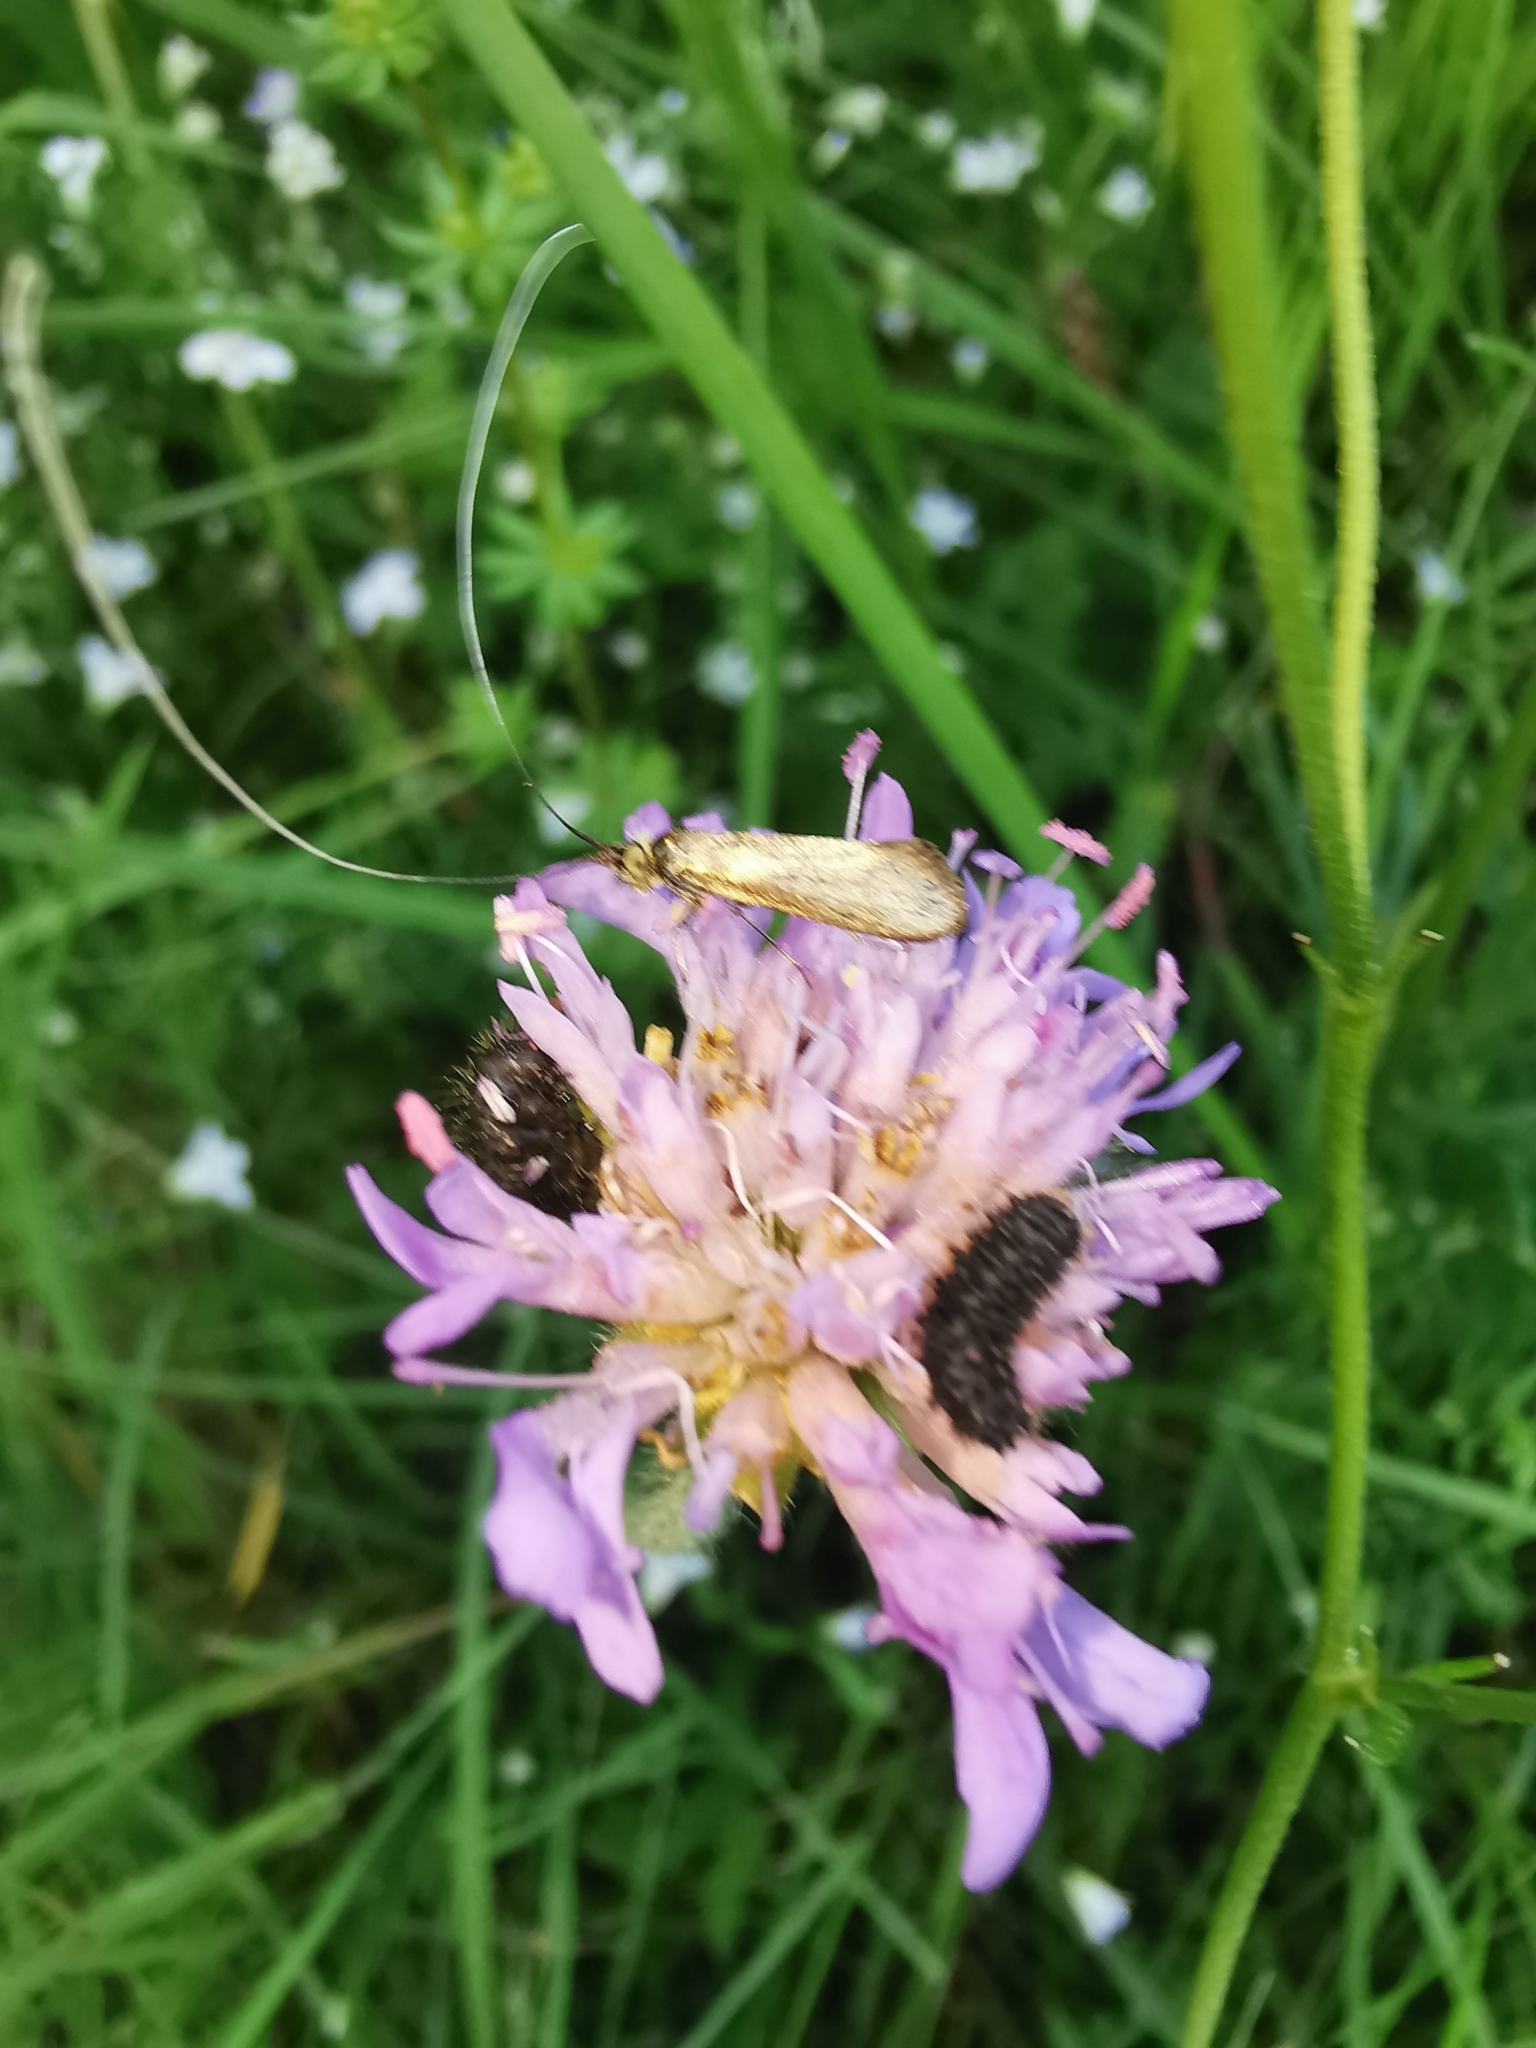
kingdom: Animalia
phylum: Arthropoda
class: Insecta
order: Lepidoptera
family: Adelidae
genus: Nemophora
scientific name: Nemophora metallica
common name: Brassy long-horn
